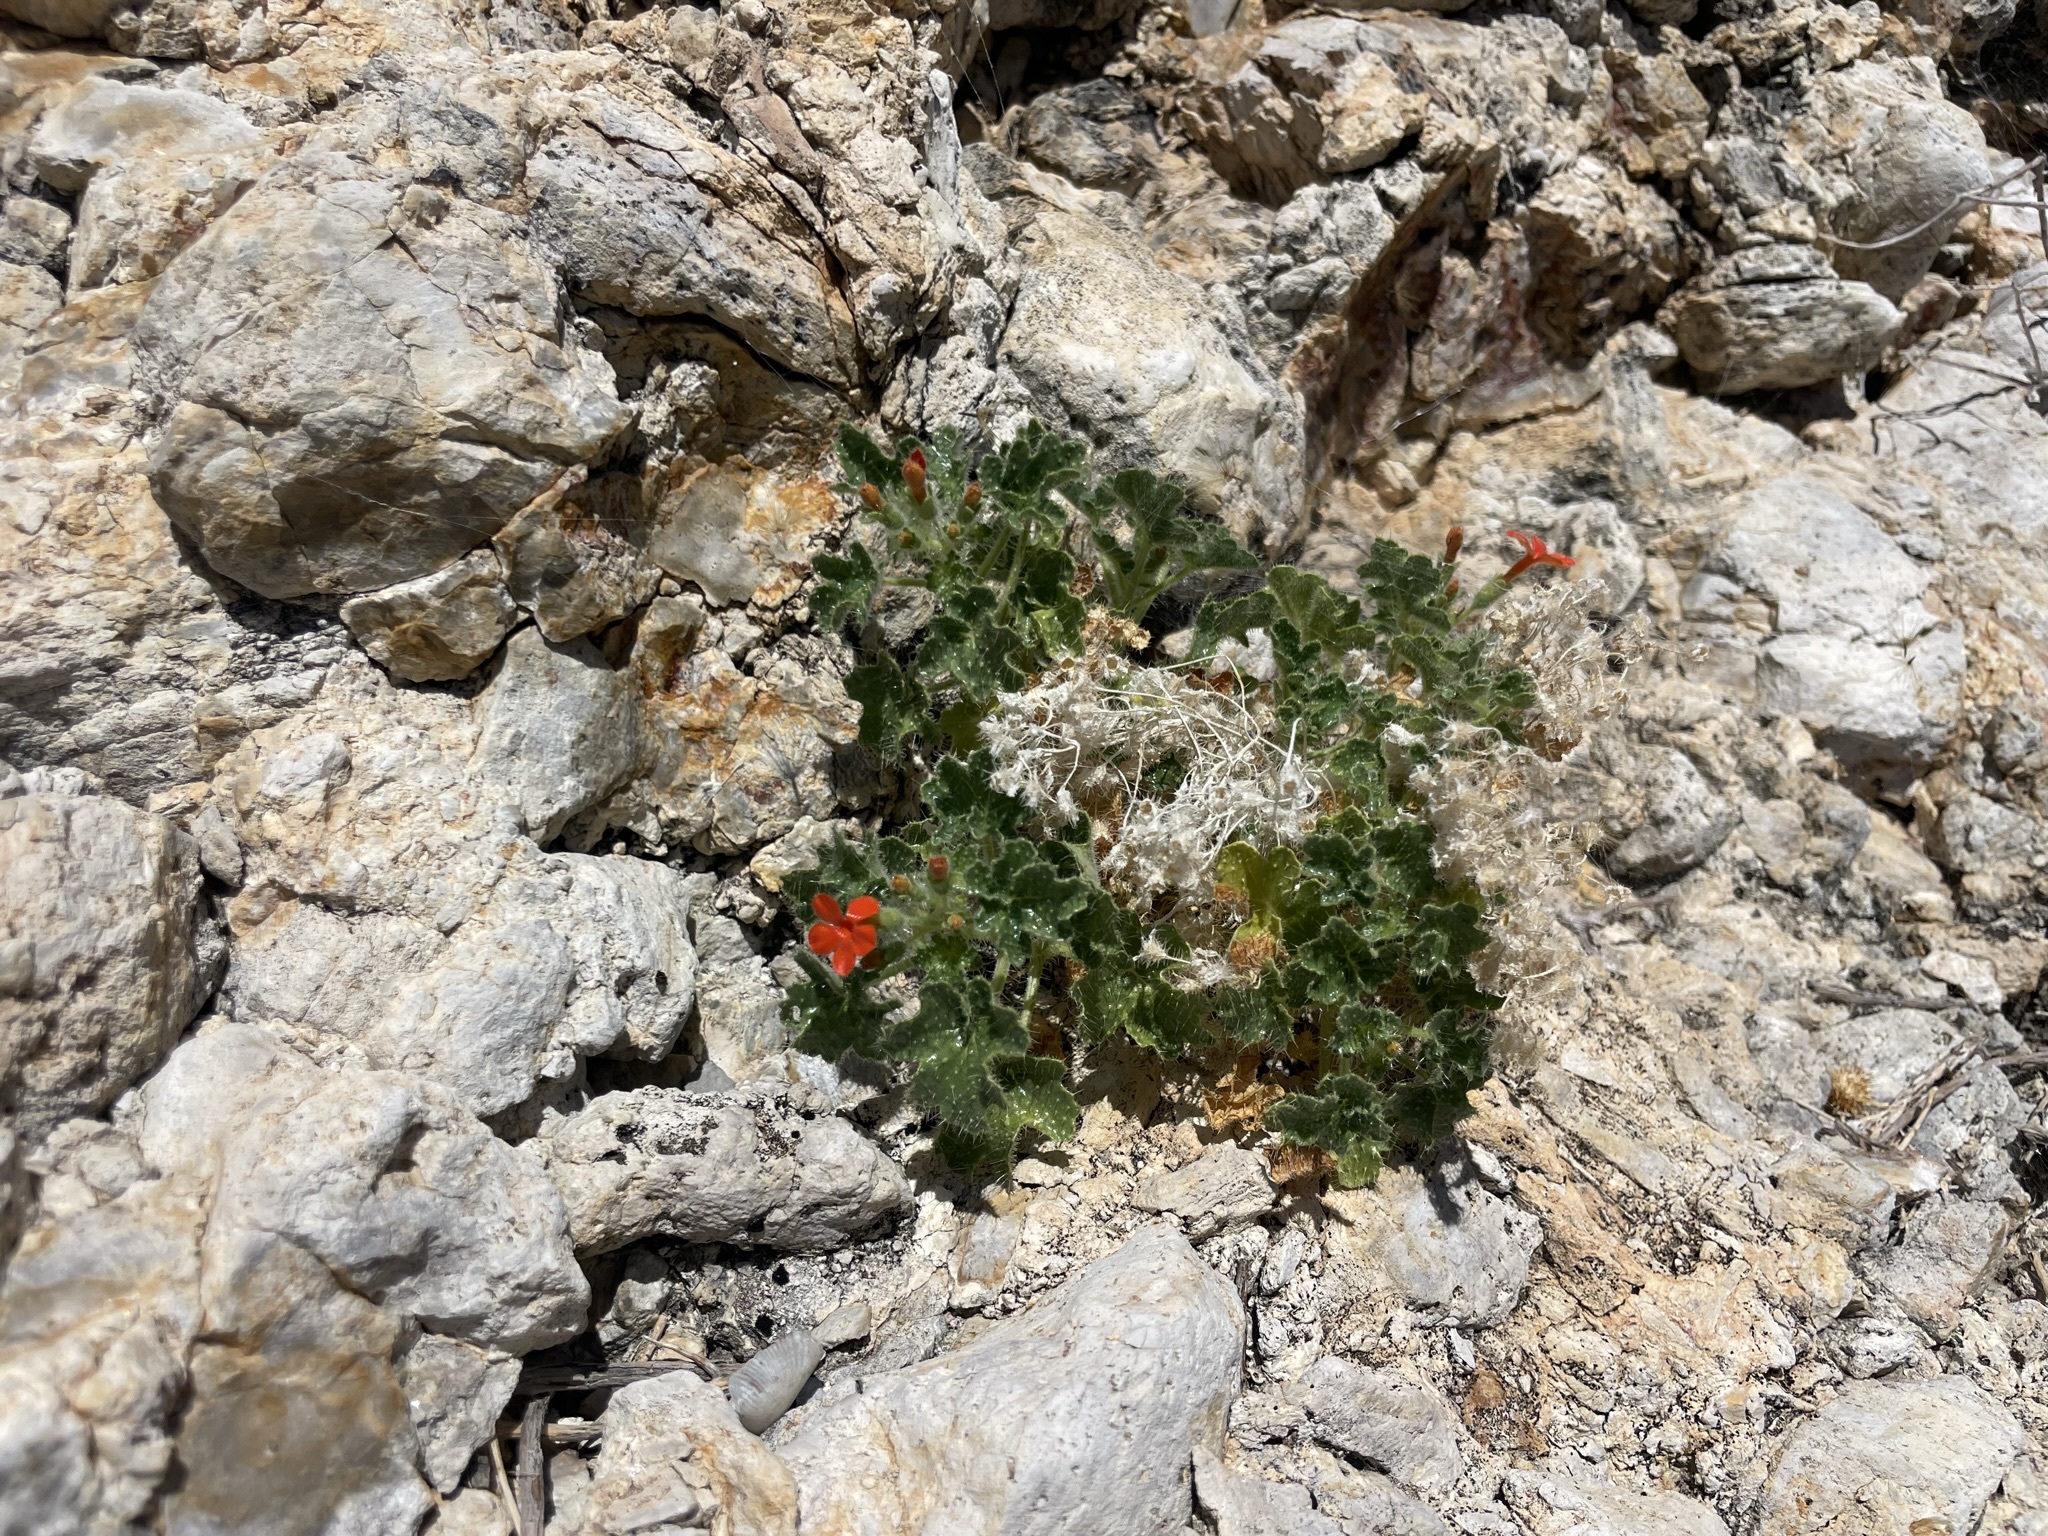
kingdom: Plantae
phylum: Tracheophyta
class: Magnoliopsida
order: Cornales
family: Loasaceae
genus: Eucnide
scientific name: Eucnide aurea
